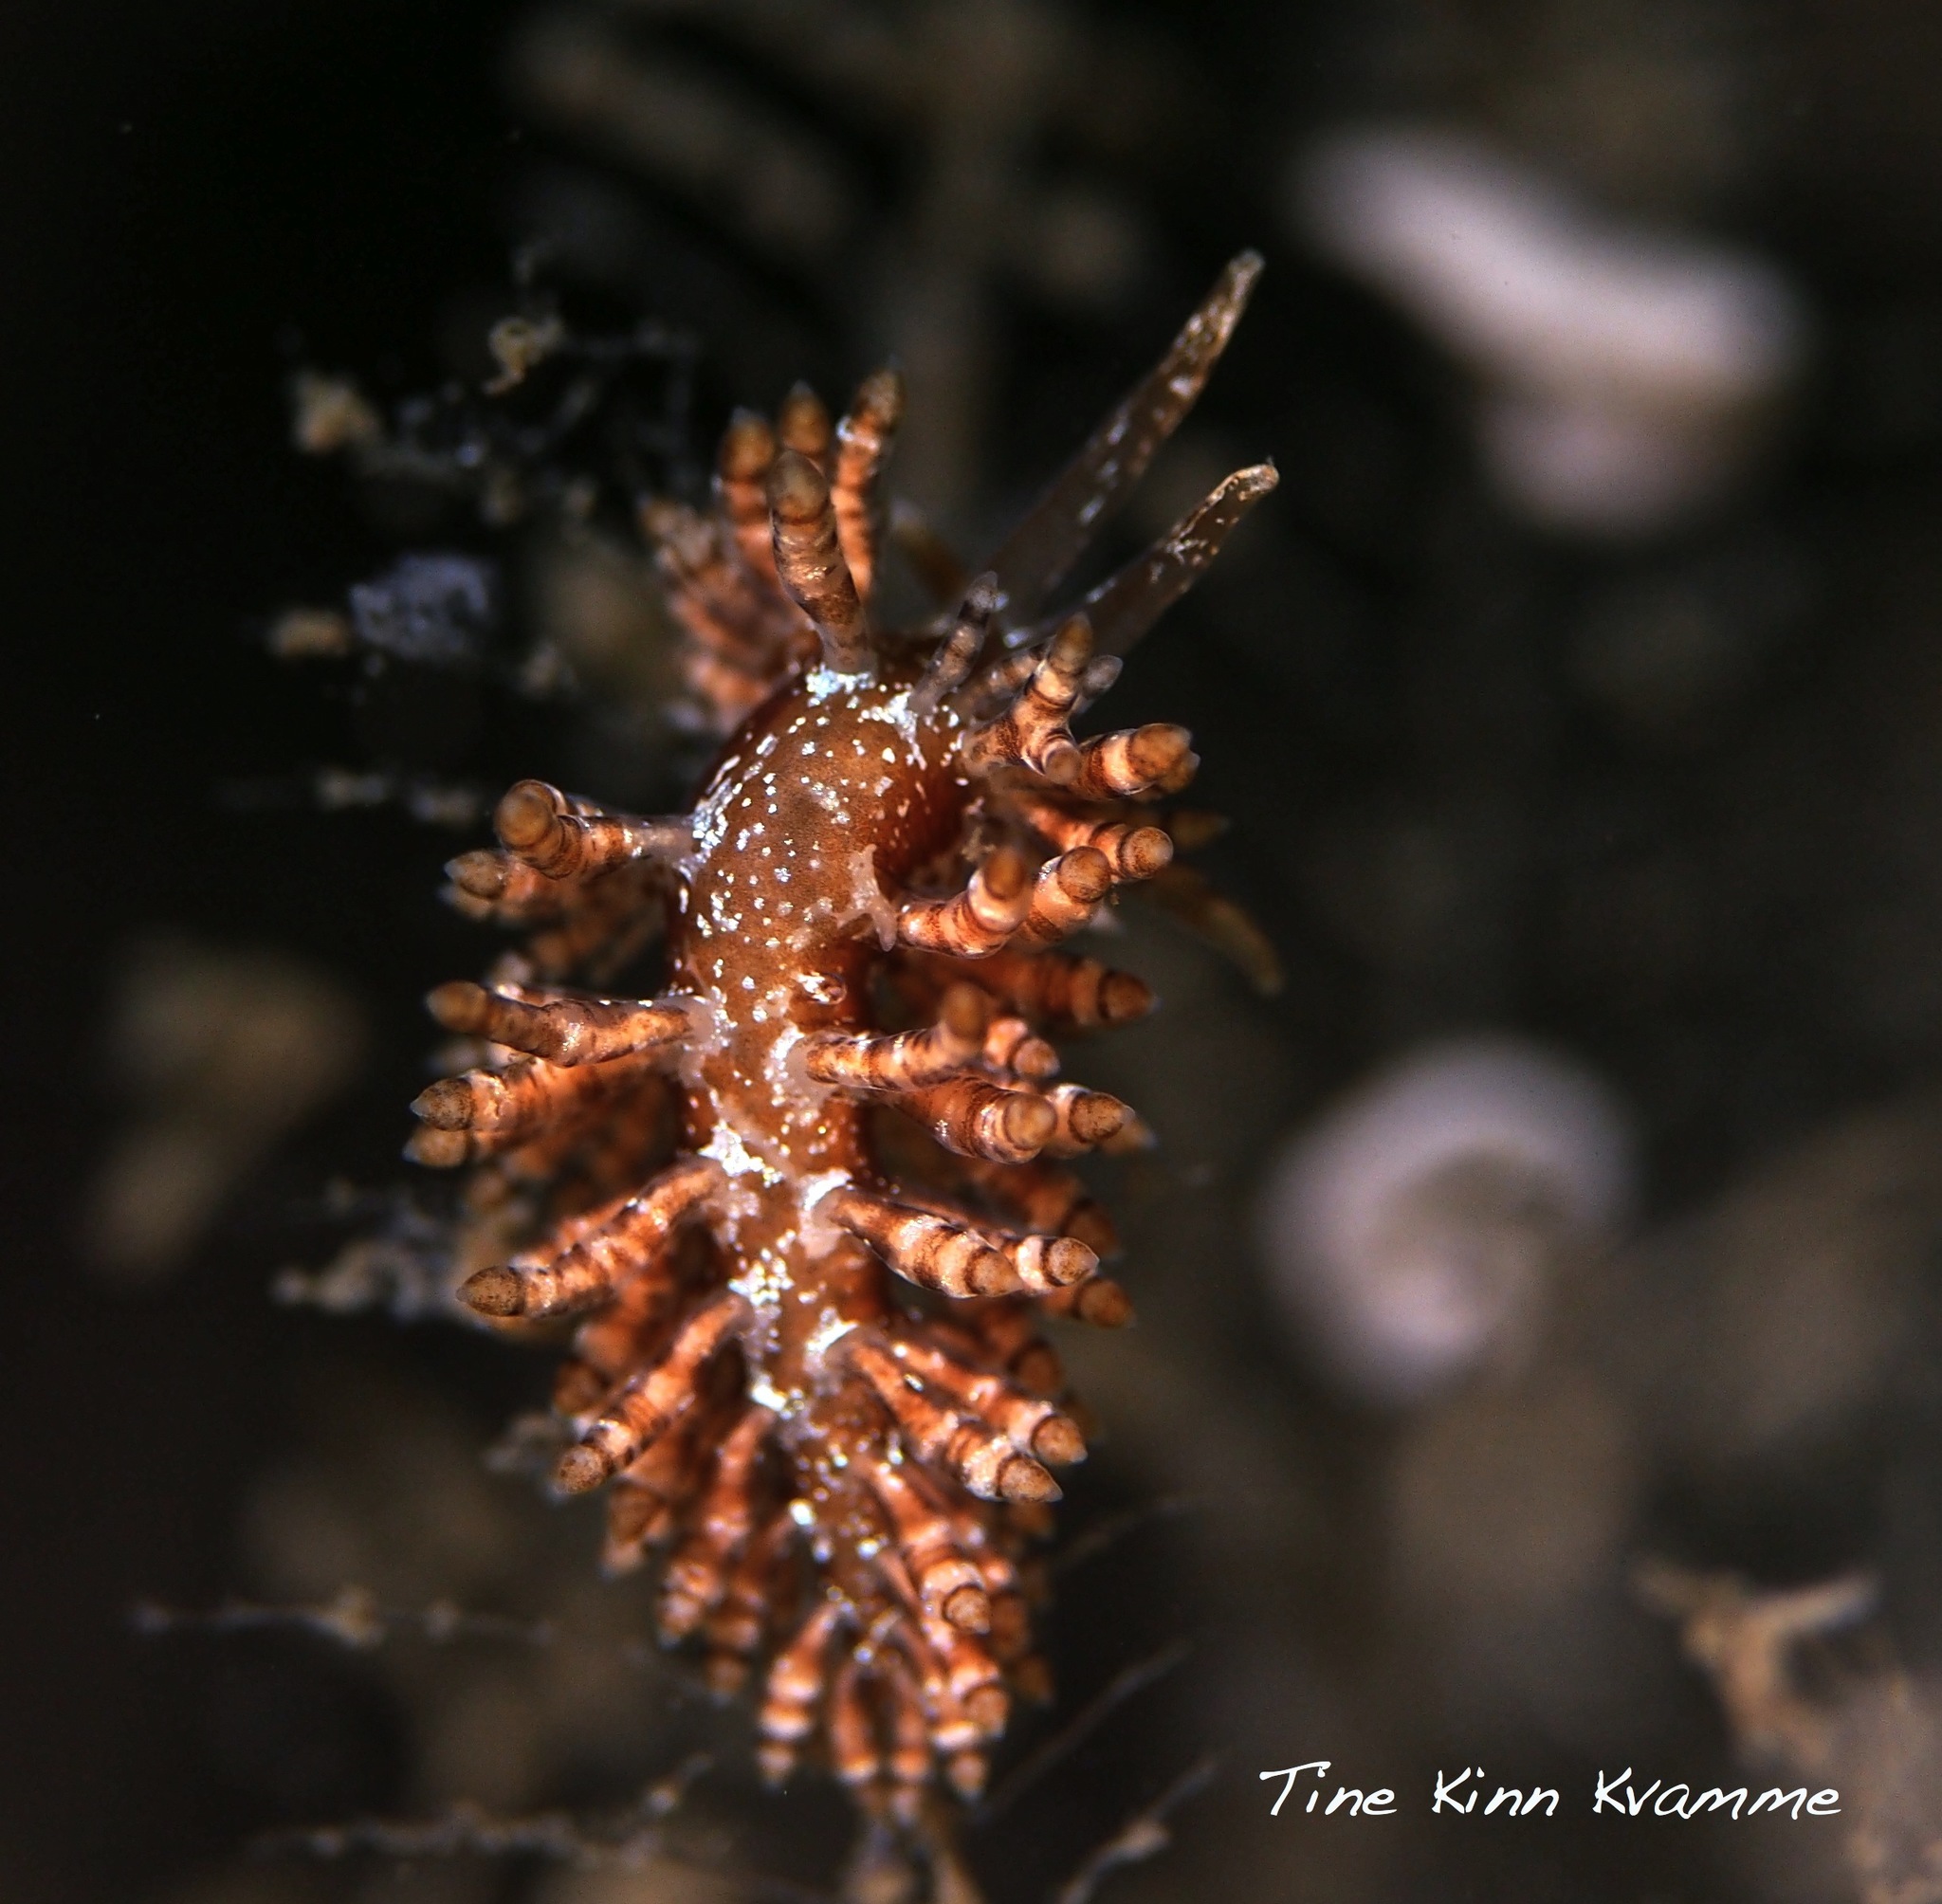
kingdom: Animalia
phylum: Mollusca
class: Gastropoda
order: Nudibranchia
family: Eubranchidae
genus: Eubranchus
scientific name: Eubranchus vittatus
